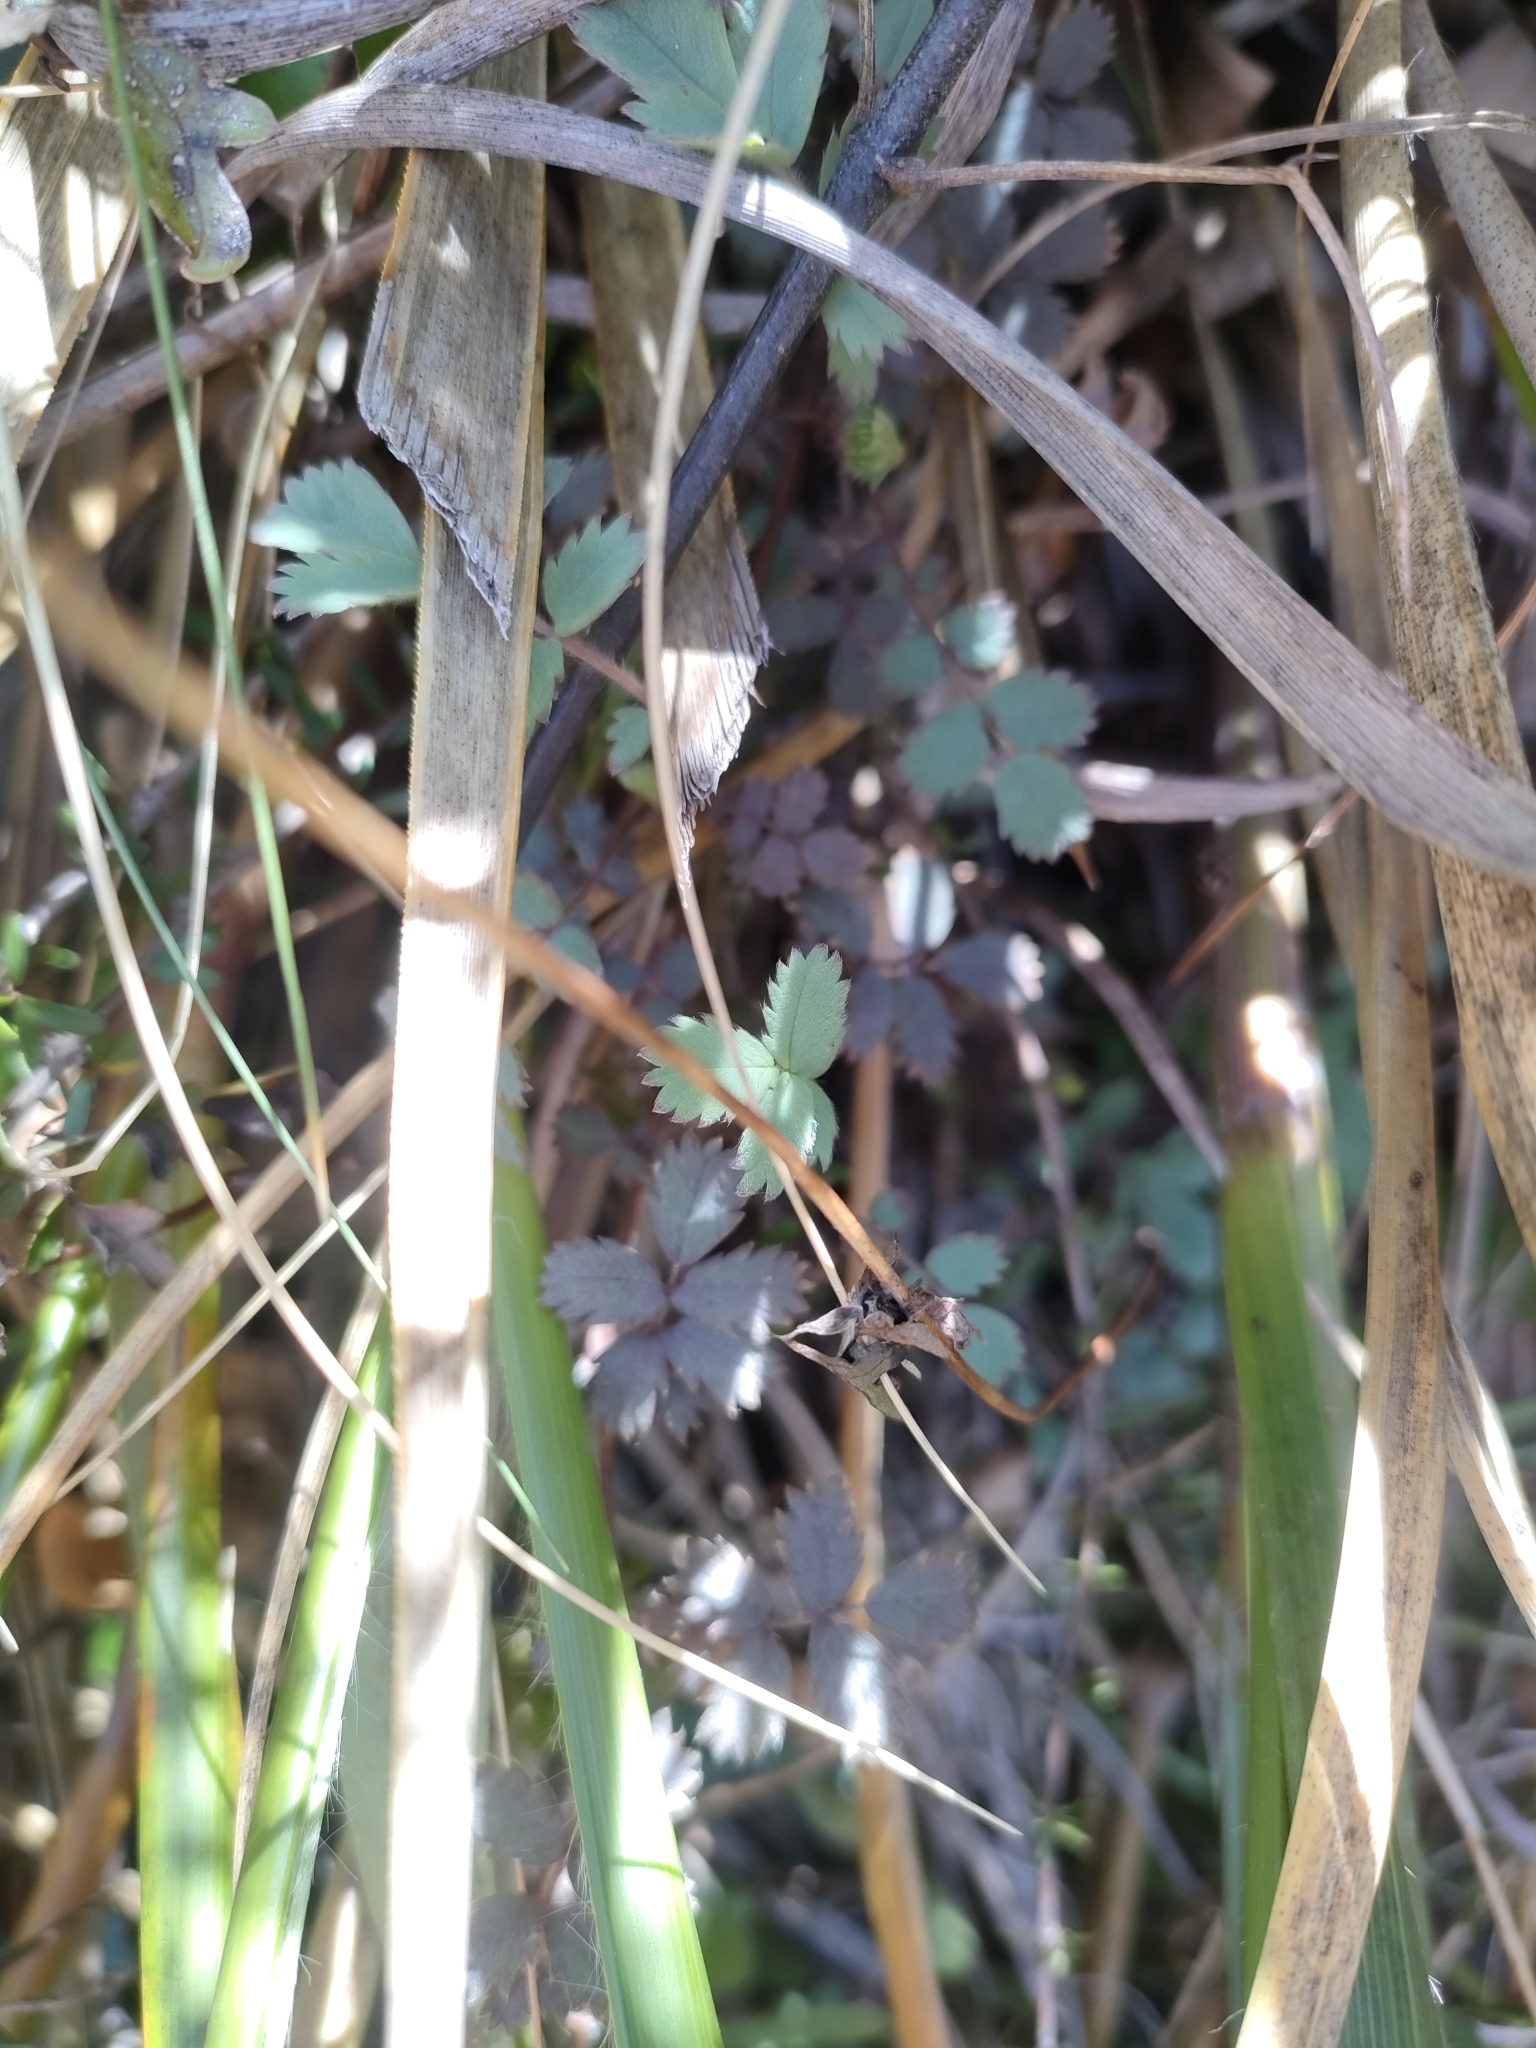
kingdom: Plantae
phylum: Tracheophyta
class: Magnoliopsida
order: Rosales
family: Rosaceae
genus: Acaena
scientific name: Acaena caesiiglauca
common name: Glaucous pirri-pirri-bur
